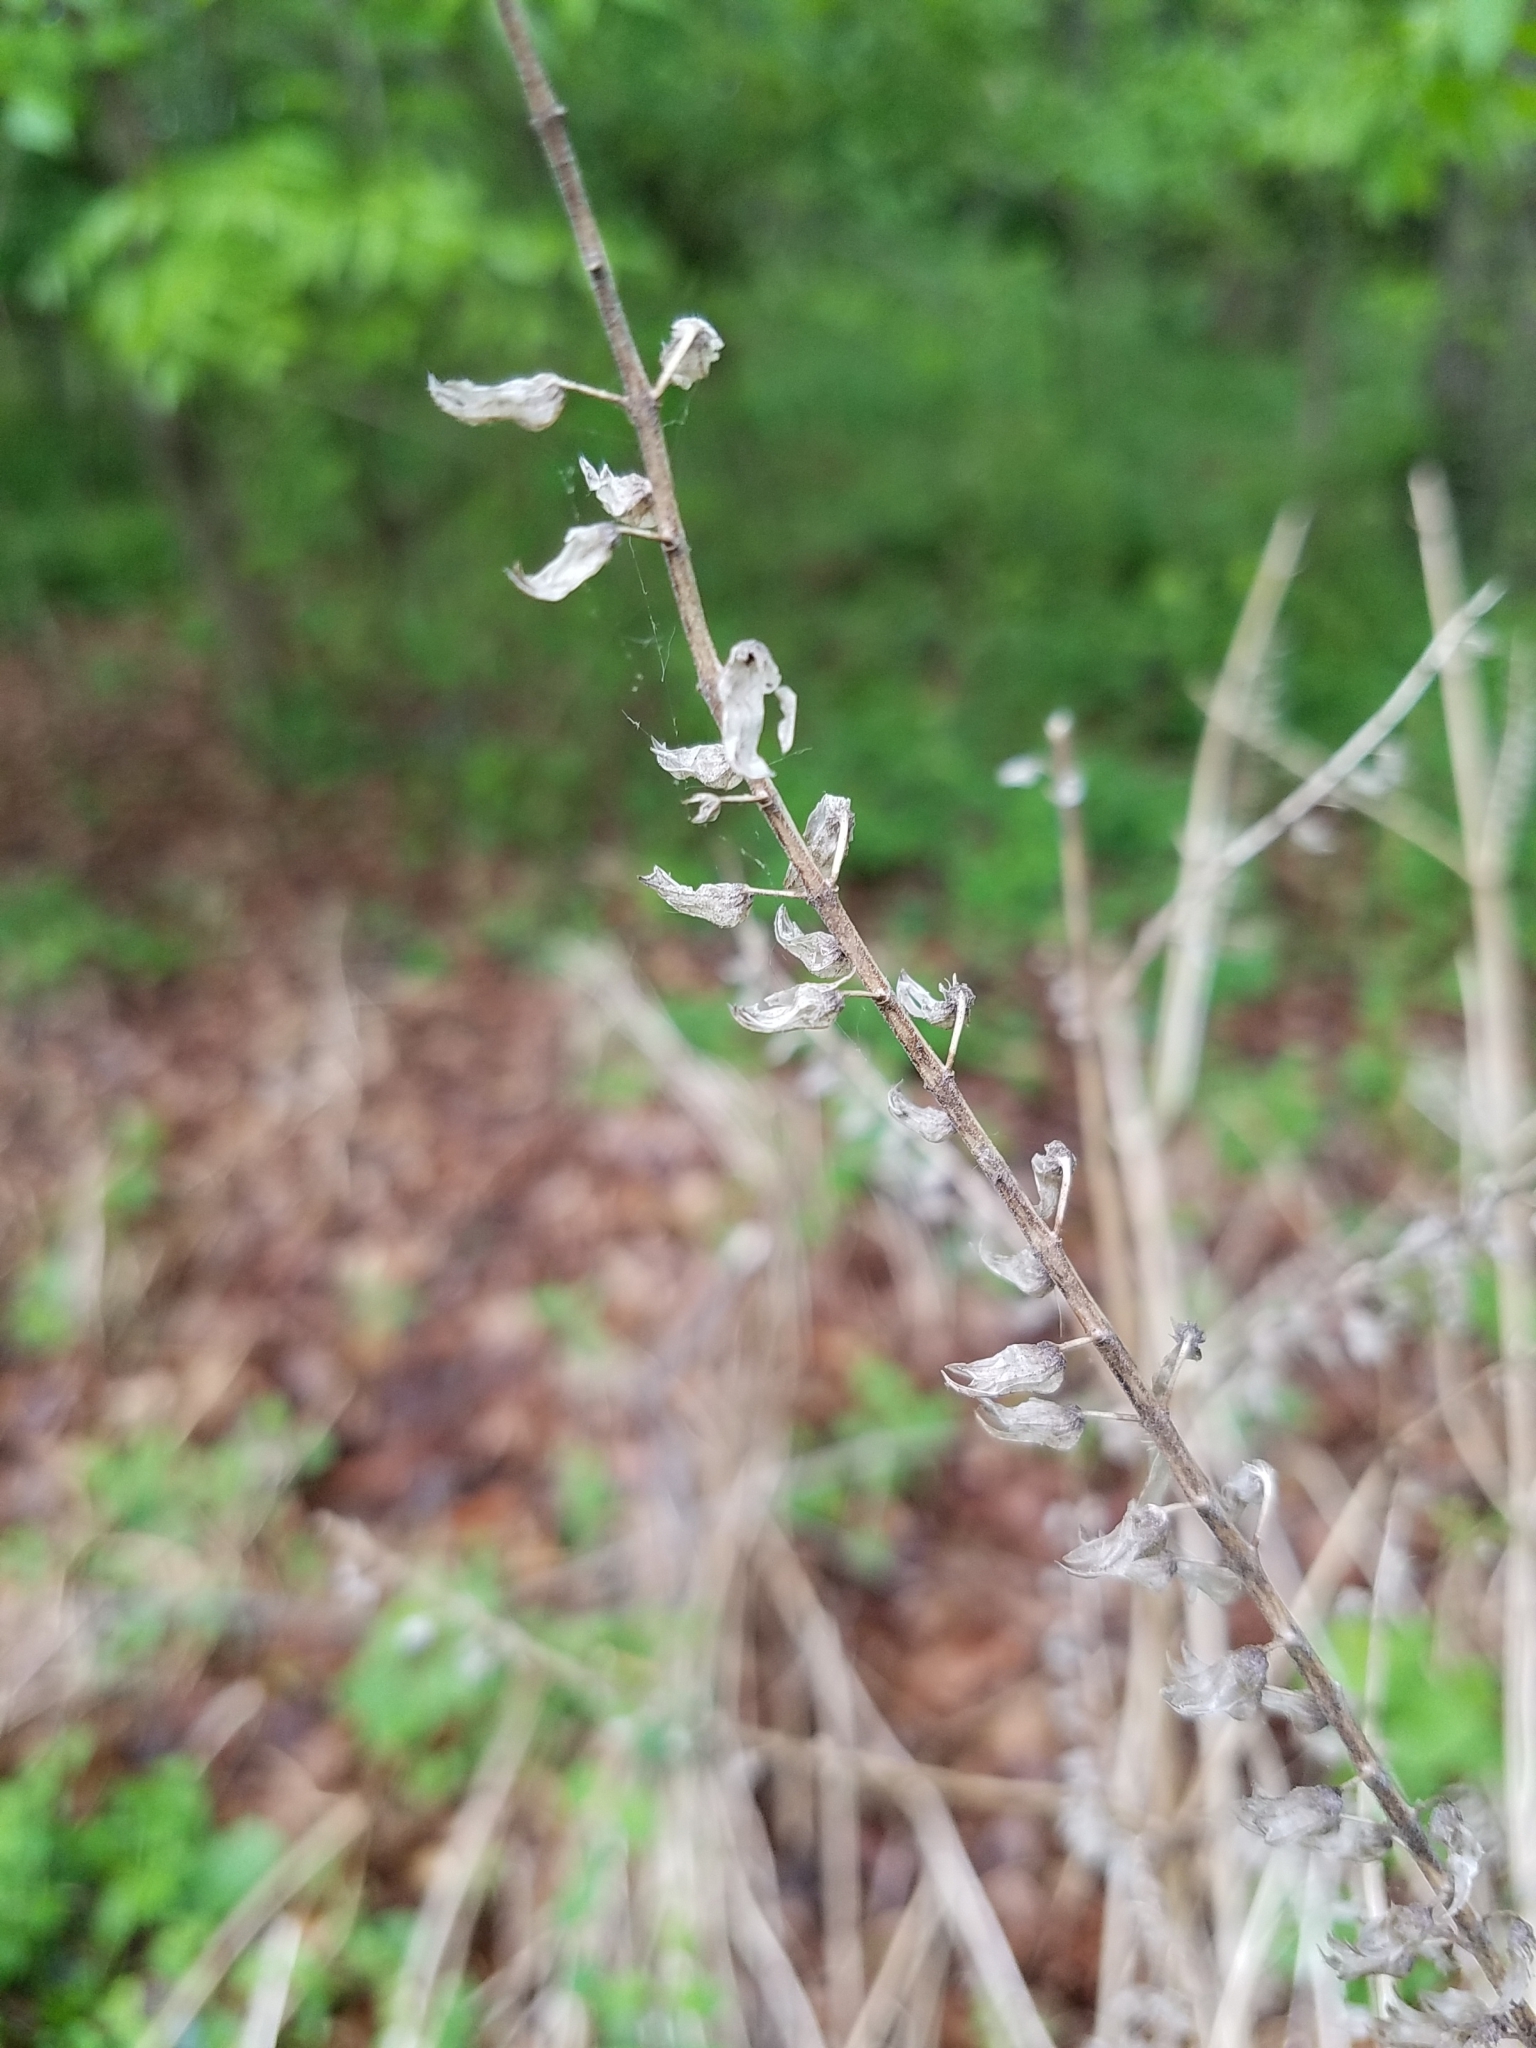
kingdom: Plantae
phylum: Tracheophyta
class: Magnoliopsida
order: Lamiales
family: Lamiaceae
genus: Perilla
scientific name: Perilla frutescens
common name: Perilla
